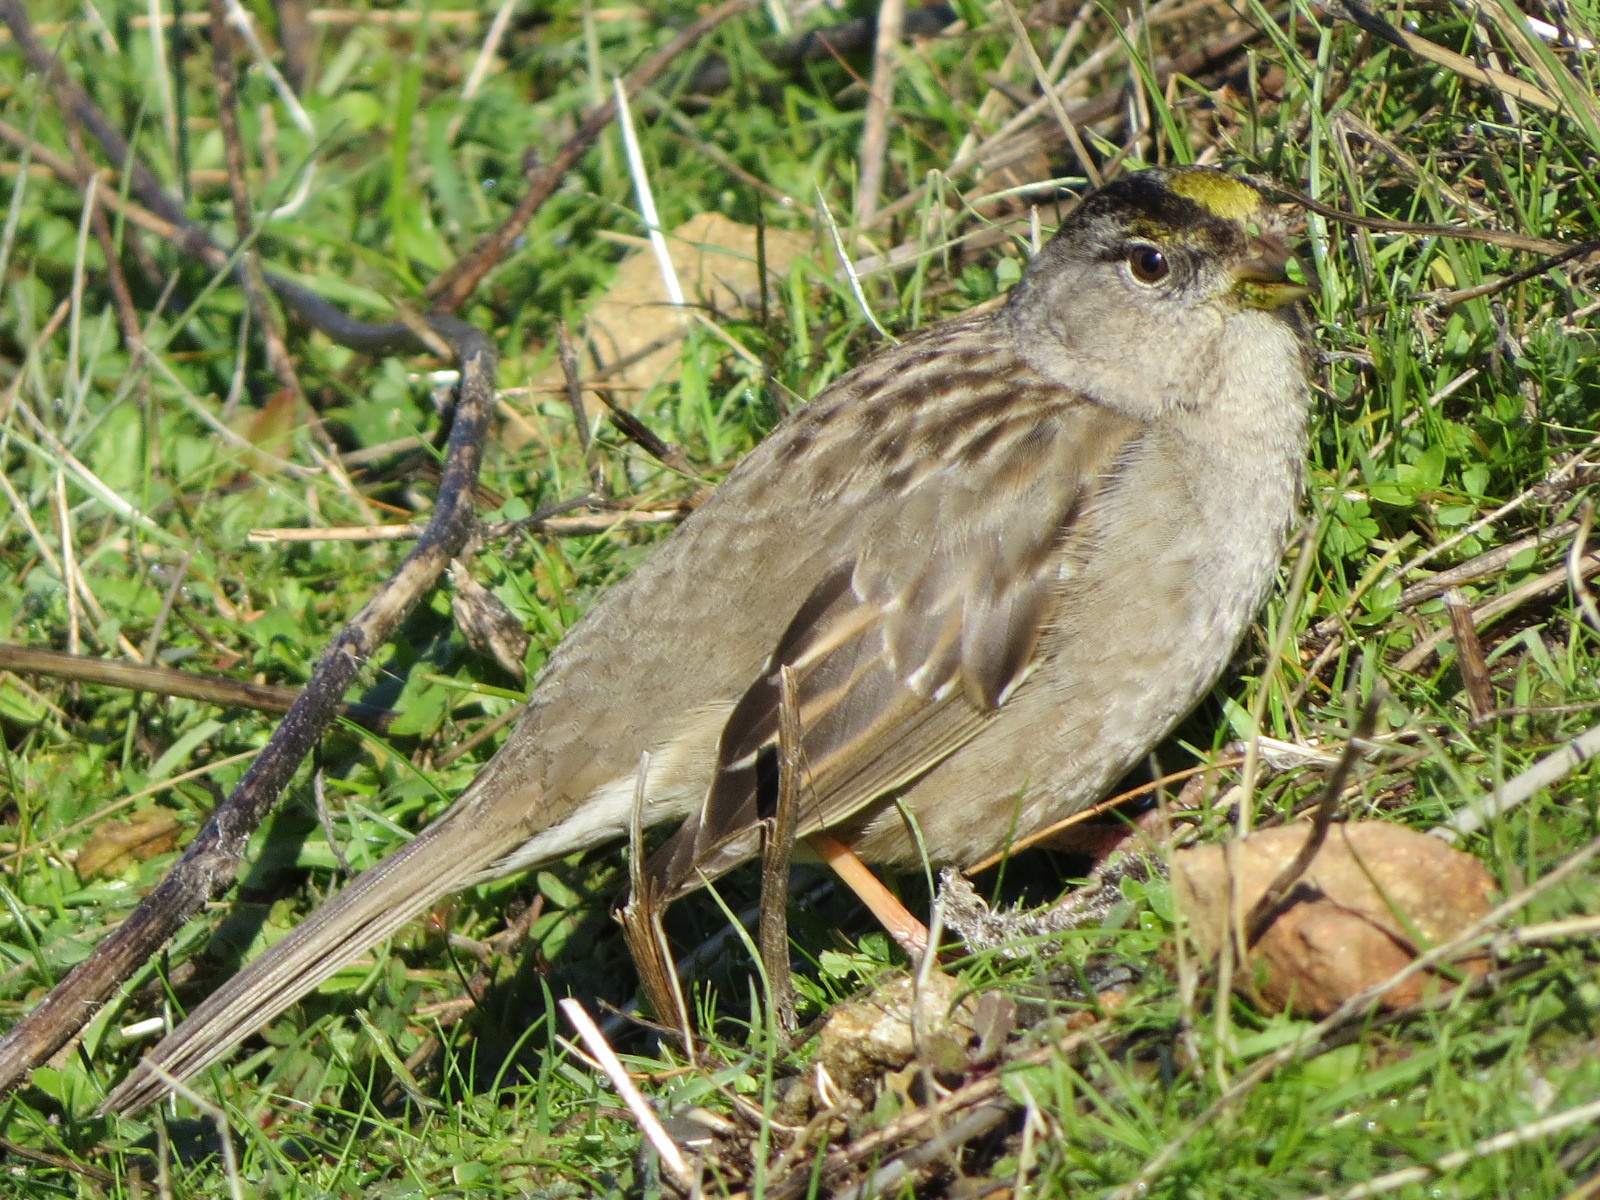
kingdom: Animalia
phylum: Chordata
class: Aves
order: Passeriformes
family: Passerellidae
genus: Zonotrichia
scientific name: Zonotrichia atricapilla
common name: Golden-crowned sparrow
